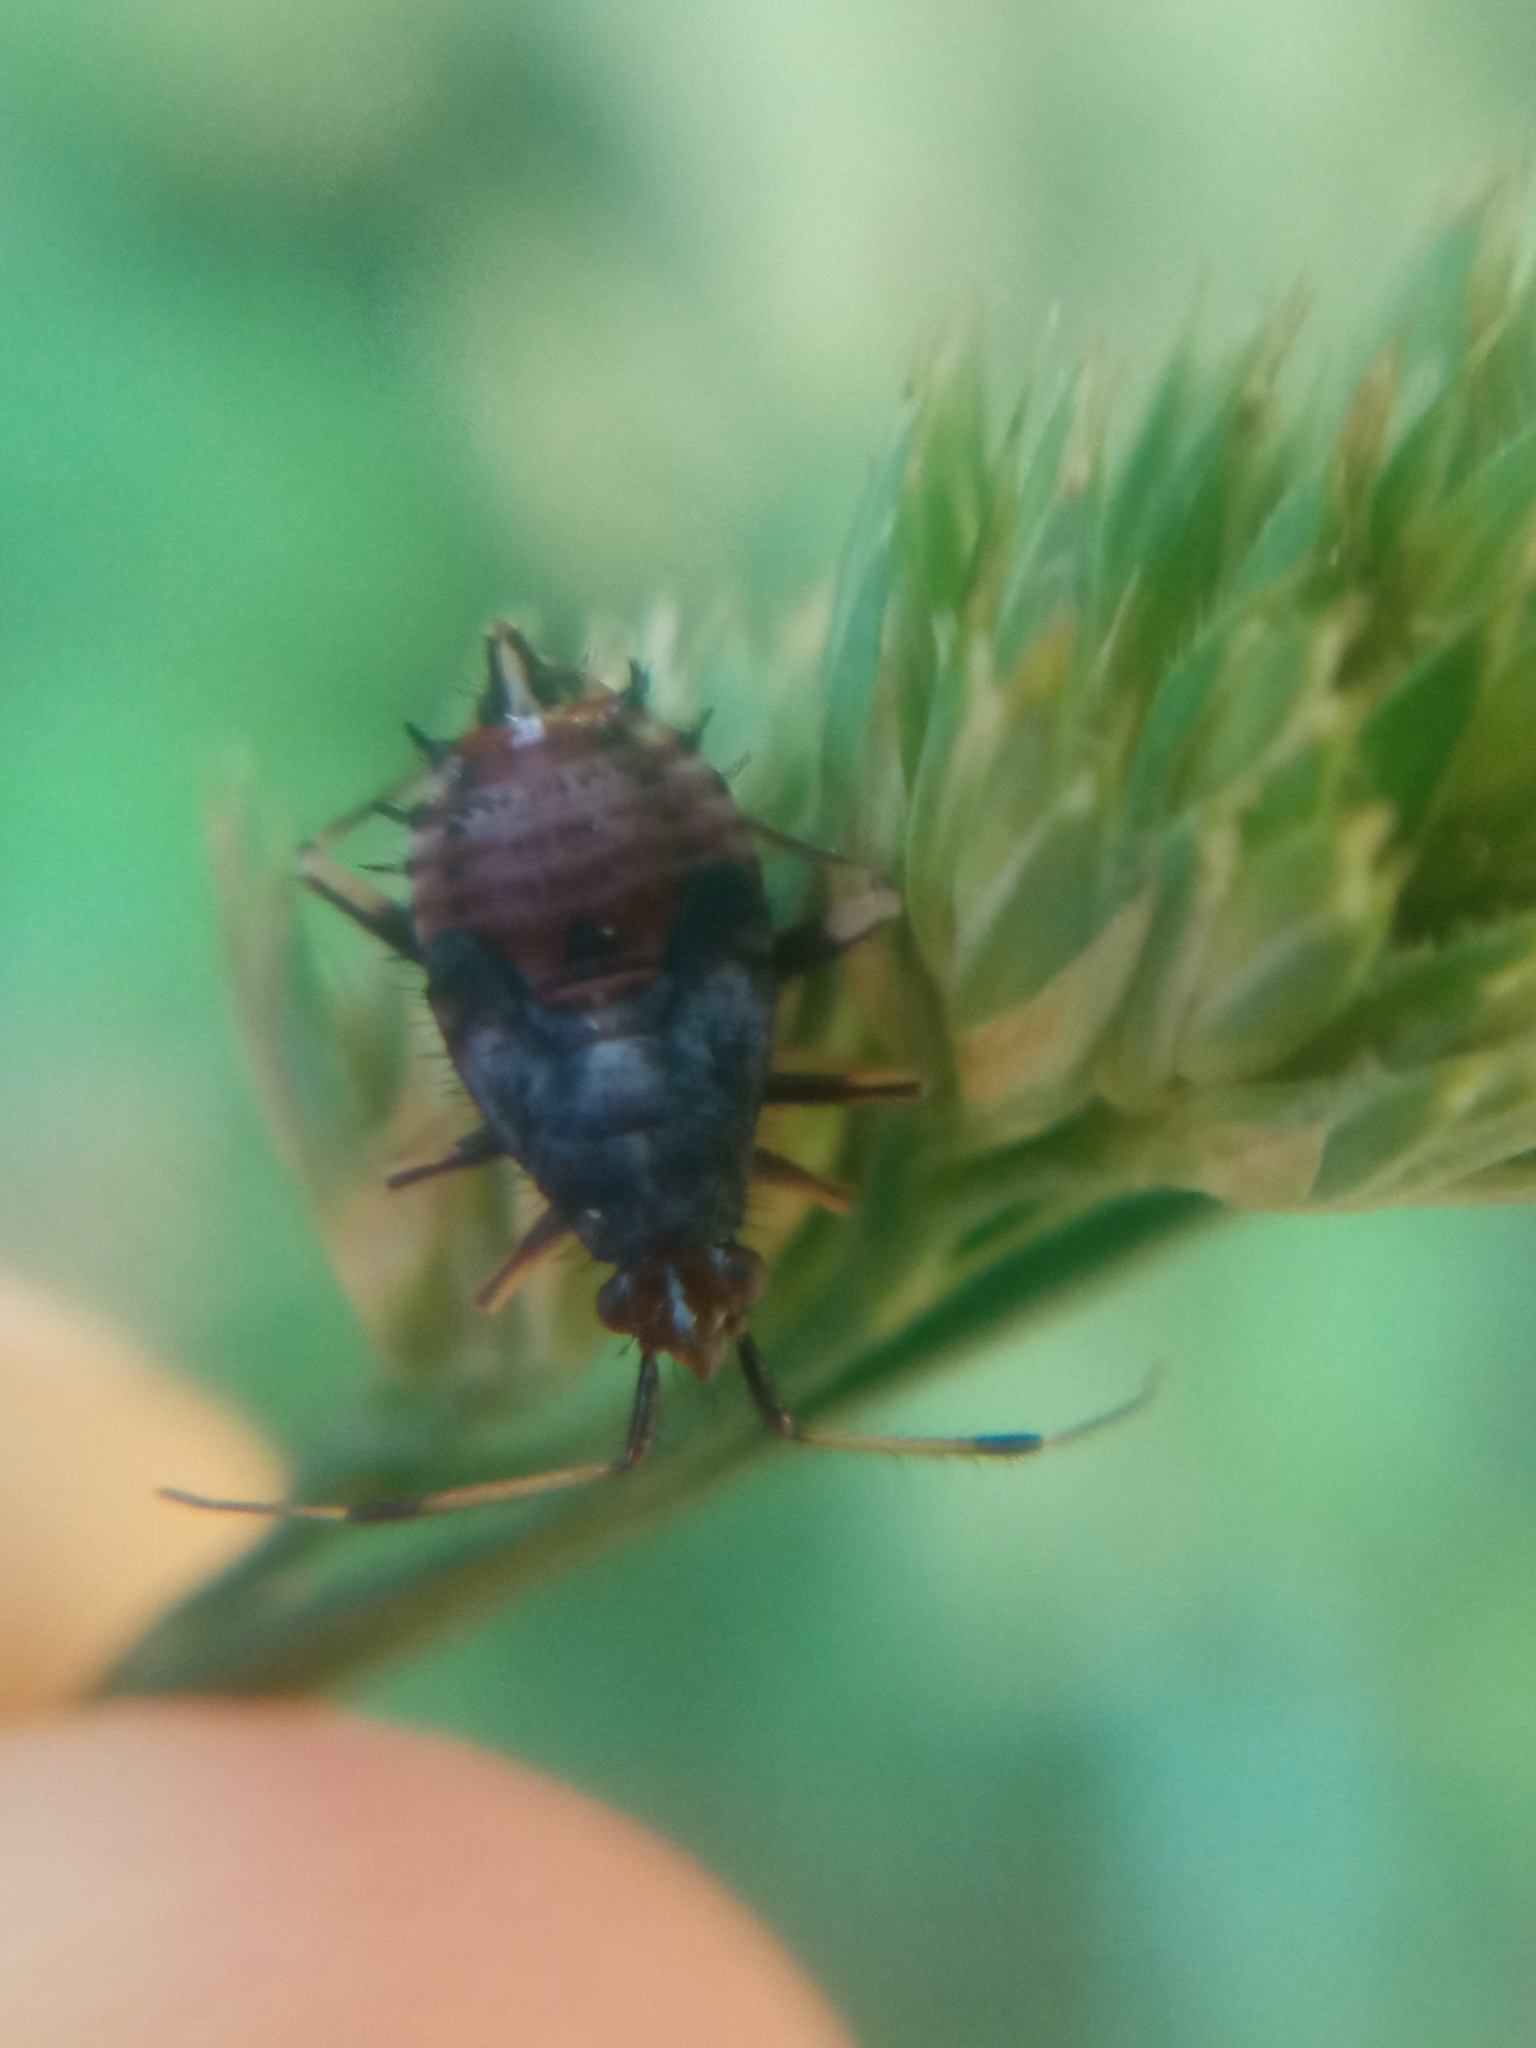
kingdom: Animalia
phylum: Arthropoda
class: Insecta
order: Hemiptera
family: Miridae
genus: Deraeocoris
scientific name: Deraeocoris ruber
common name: Plant bug
